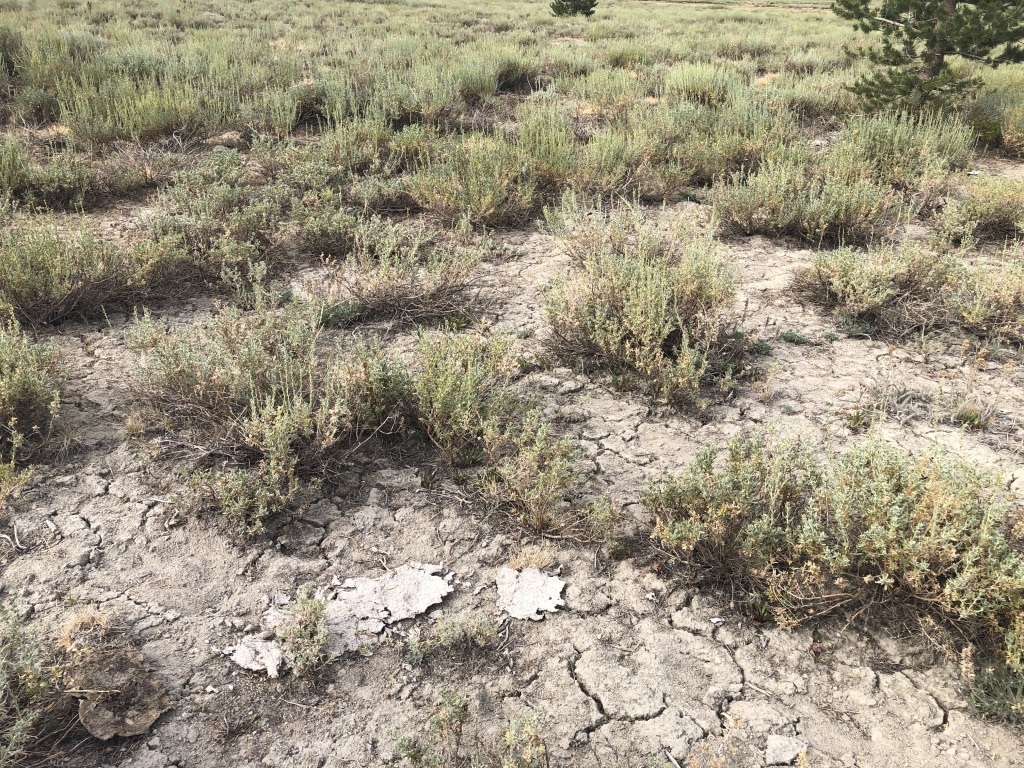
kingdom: Plantae
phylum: Tracheophyta
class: Magnoliopsida
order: Asterales
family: Asteraceae
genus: Artemisia
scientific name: Artemisia rothrockii
